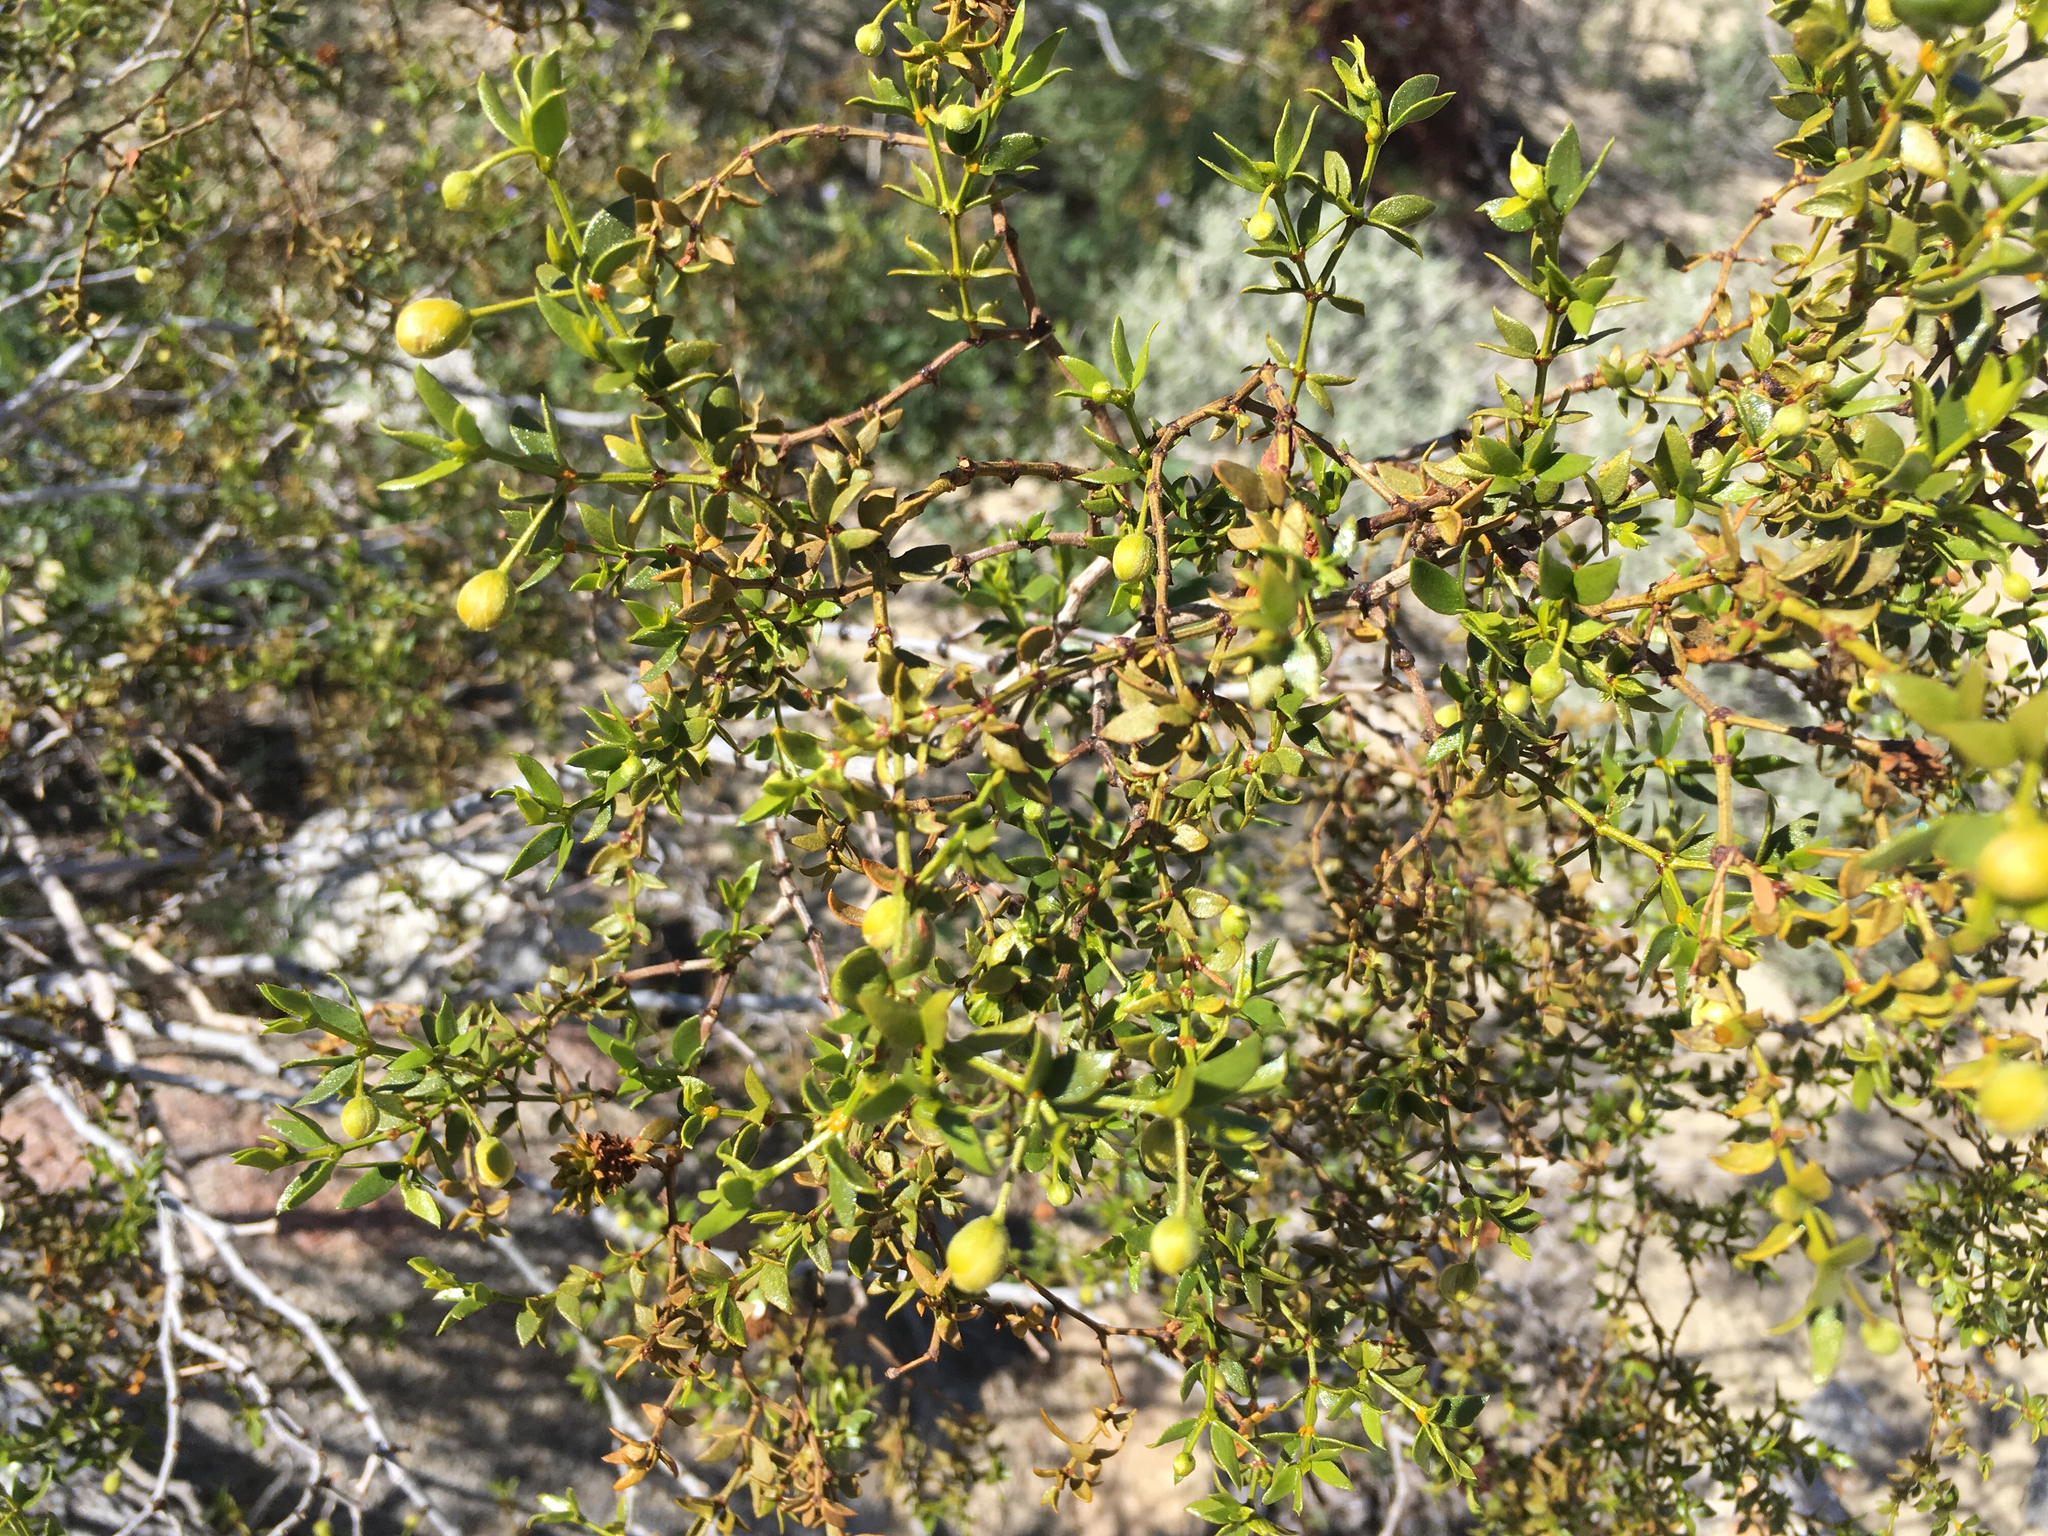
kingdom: Plantae
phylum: Tracheophyta
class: Magnoliopsida
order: Zygophyllales
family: Zygophyllaceae
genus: Larrea
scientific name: Larrea tridentata
